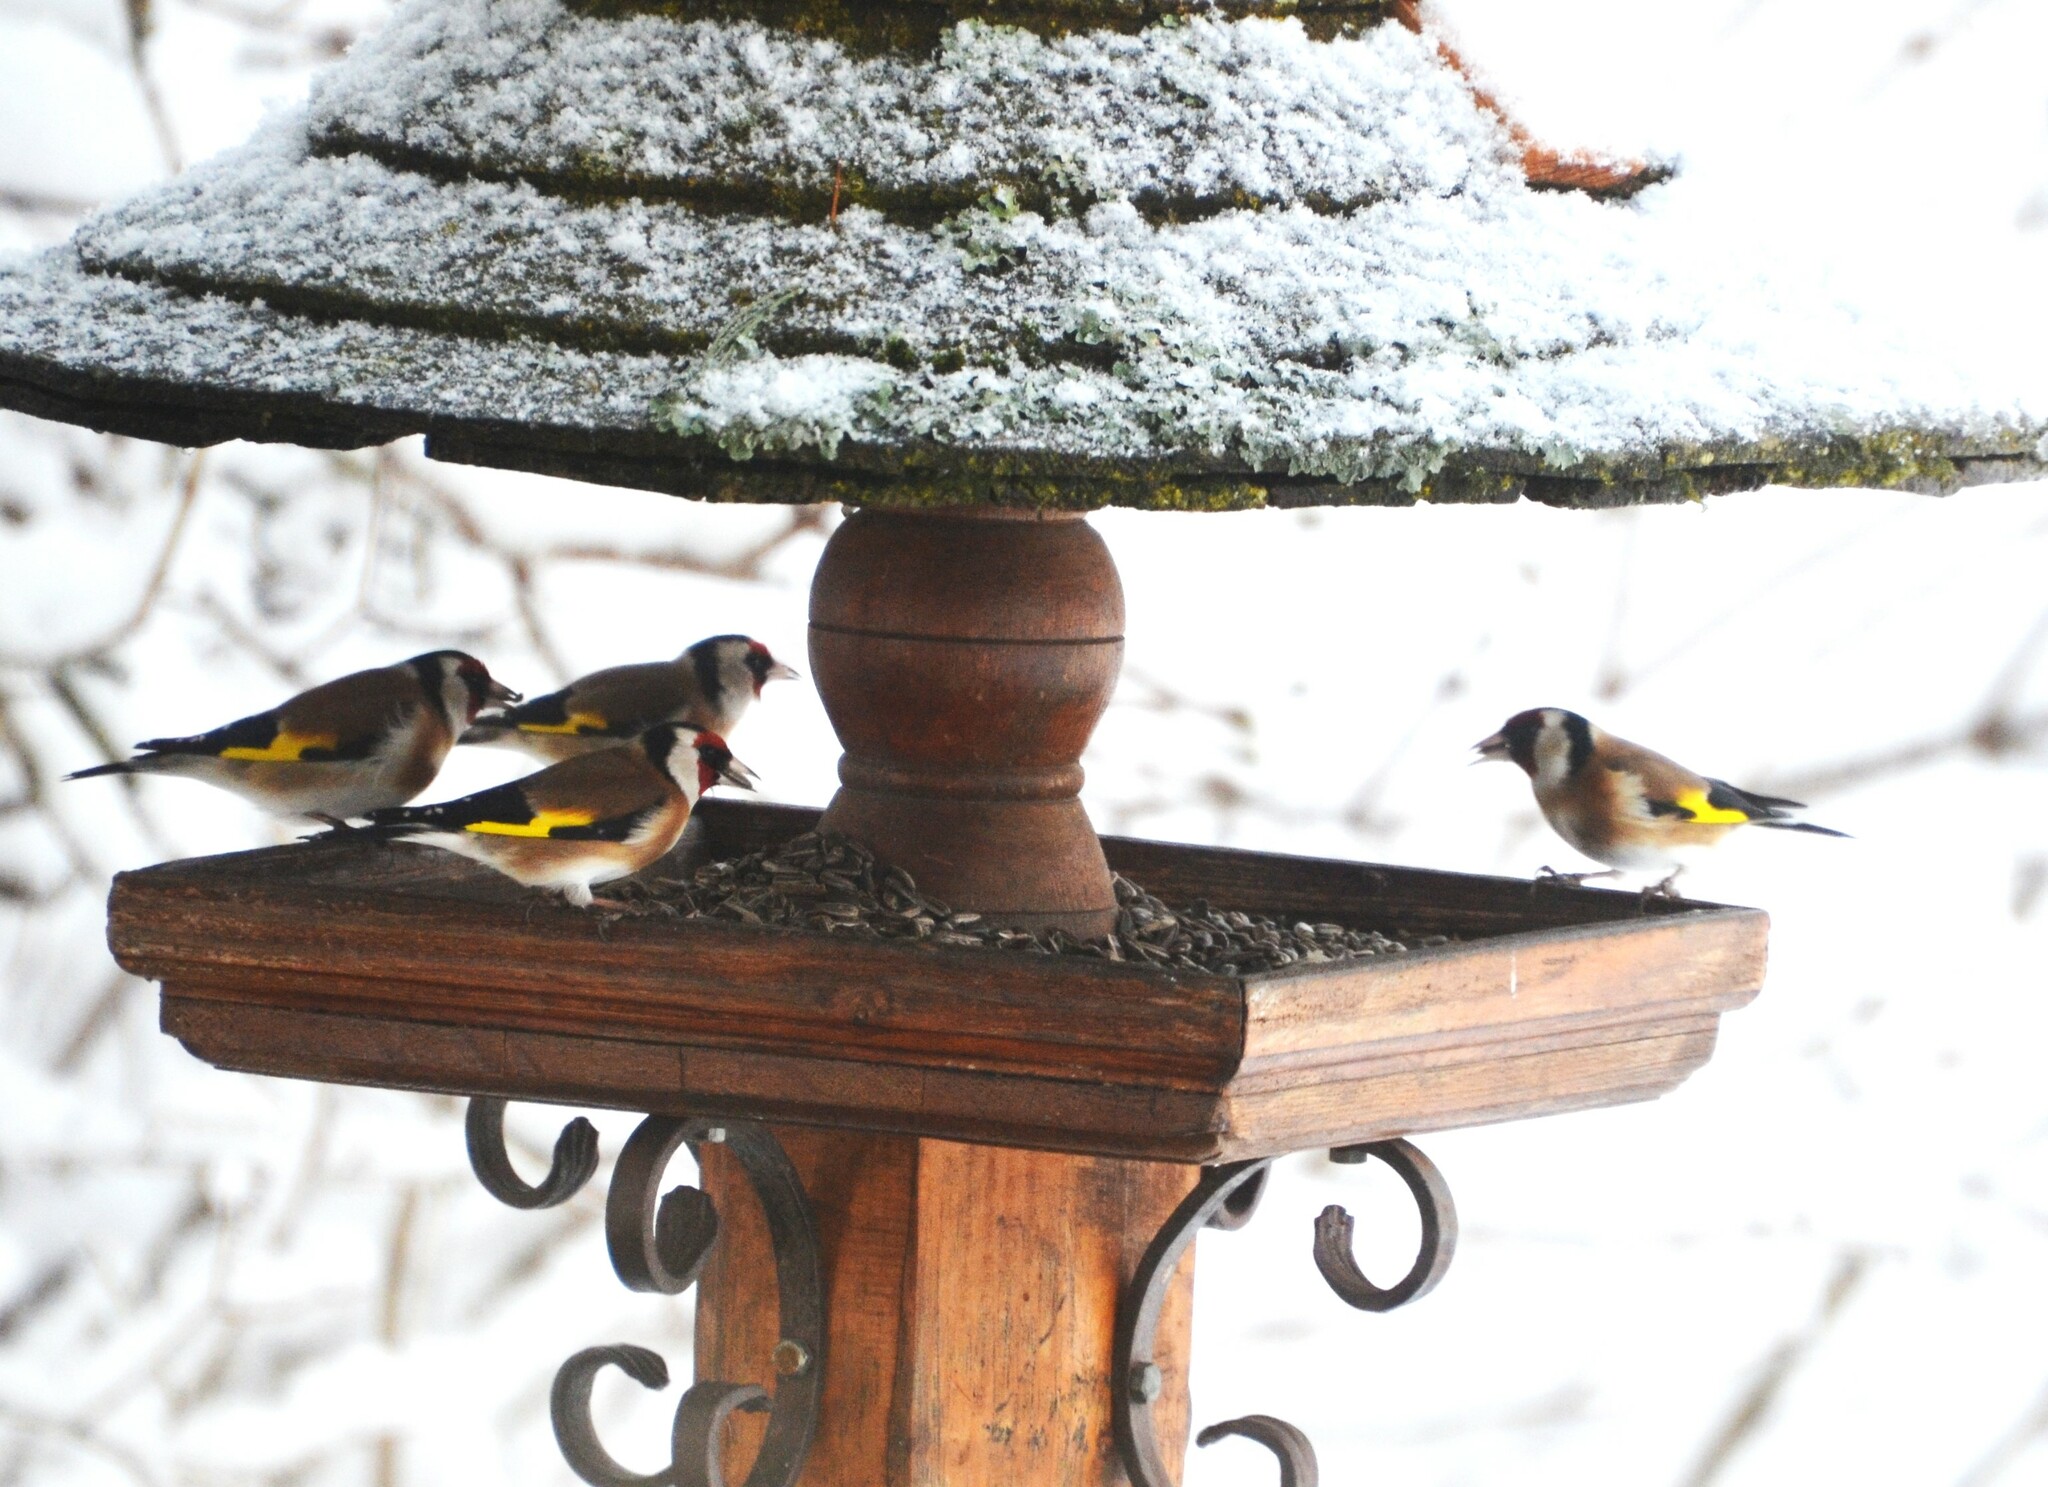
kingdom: Animalia
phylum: Chordata
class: Aves
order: Passeriformes
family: Fringillidae
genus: Carduelis
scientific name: Carduelis carduelis
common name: European goldfinch
